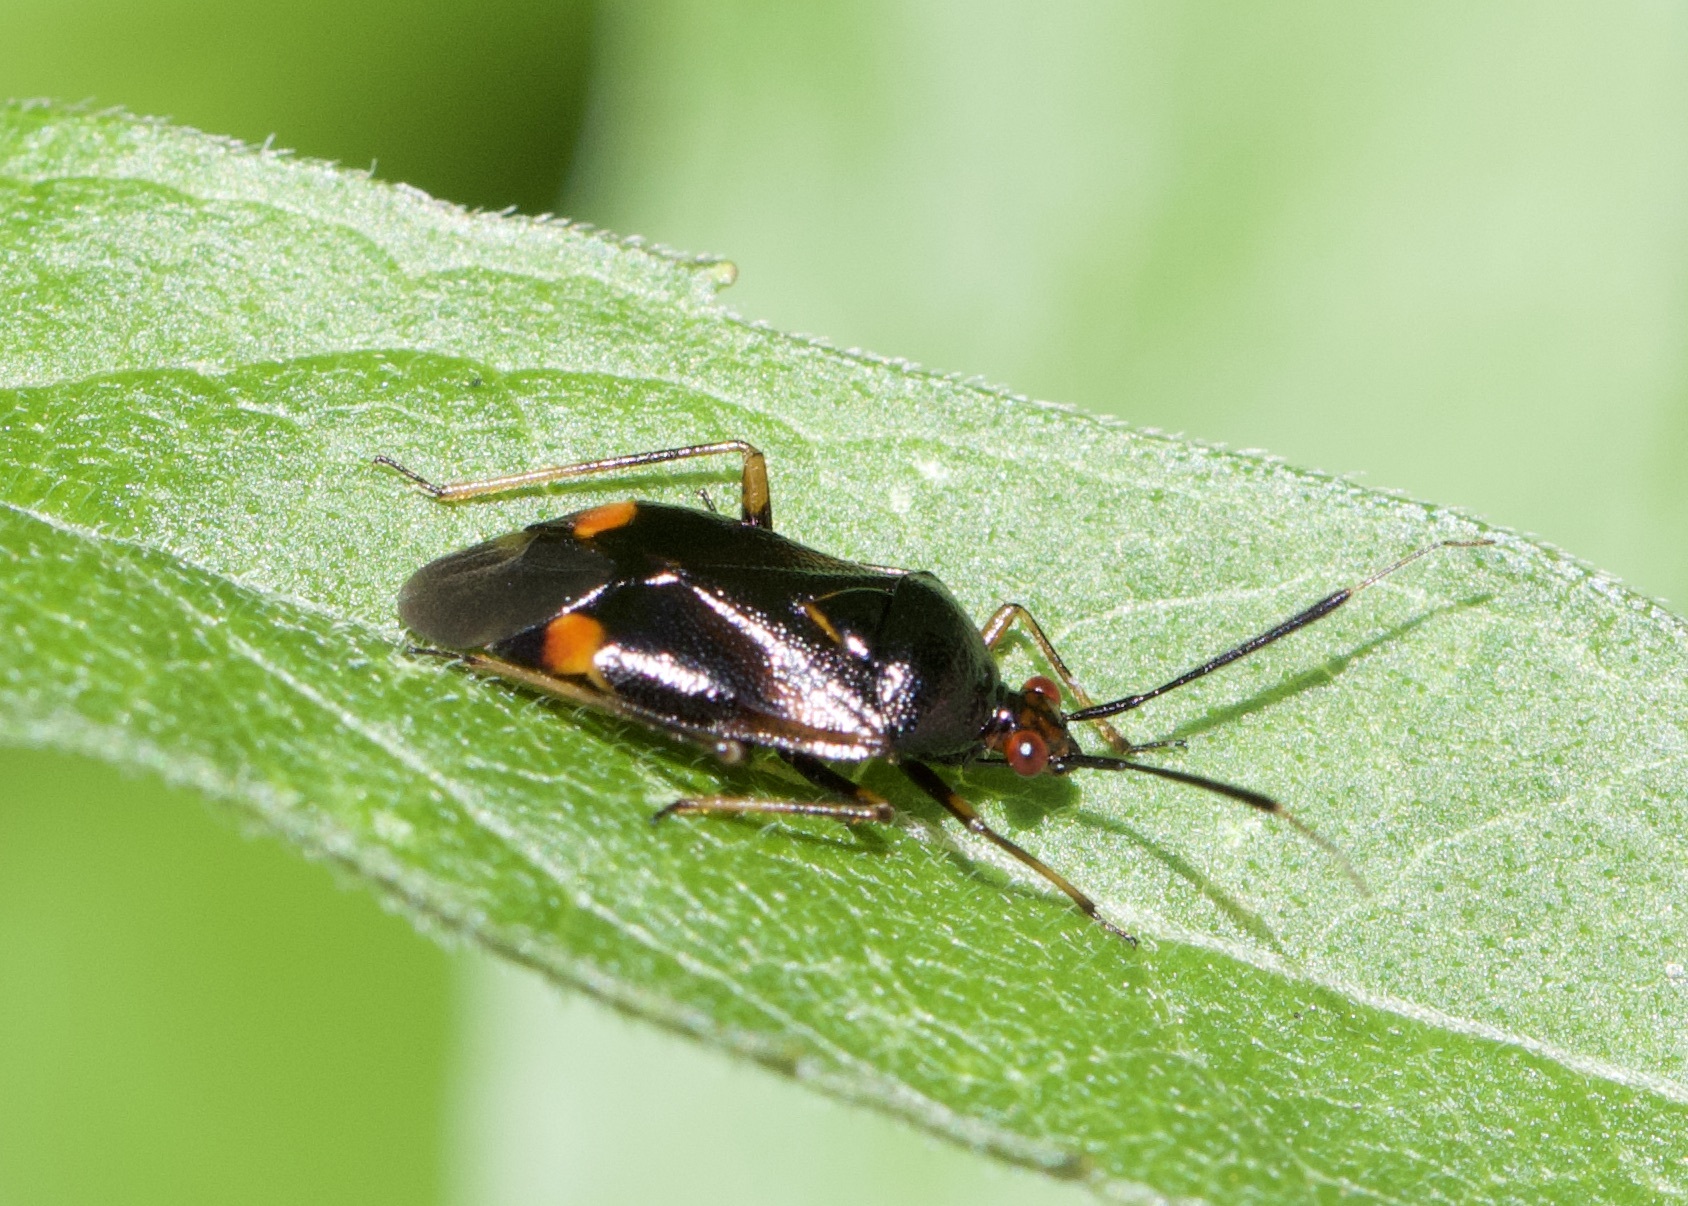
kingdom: Animalia
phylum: Arthropoda
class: Insecta
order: Hemiptera
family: Miridae
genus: Deraeocoris
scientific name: Deraeocoris ruber
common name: Plant bug
